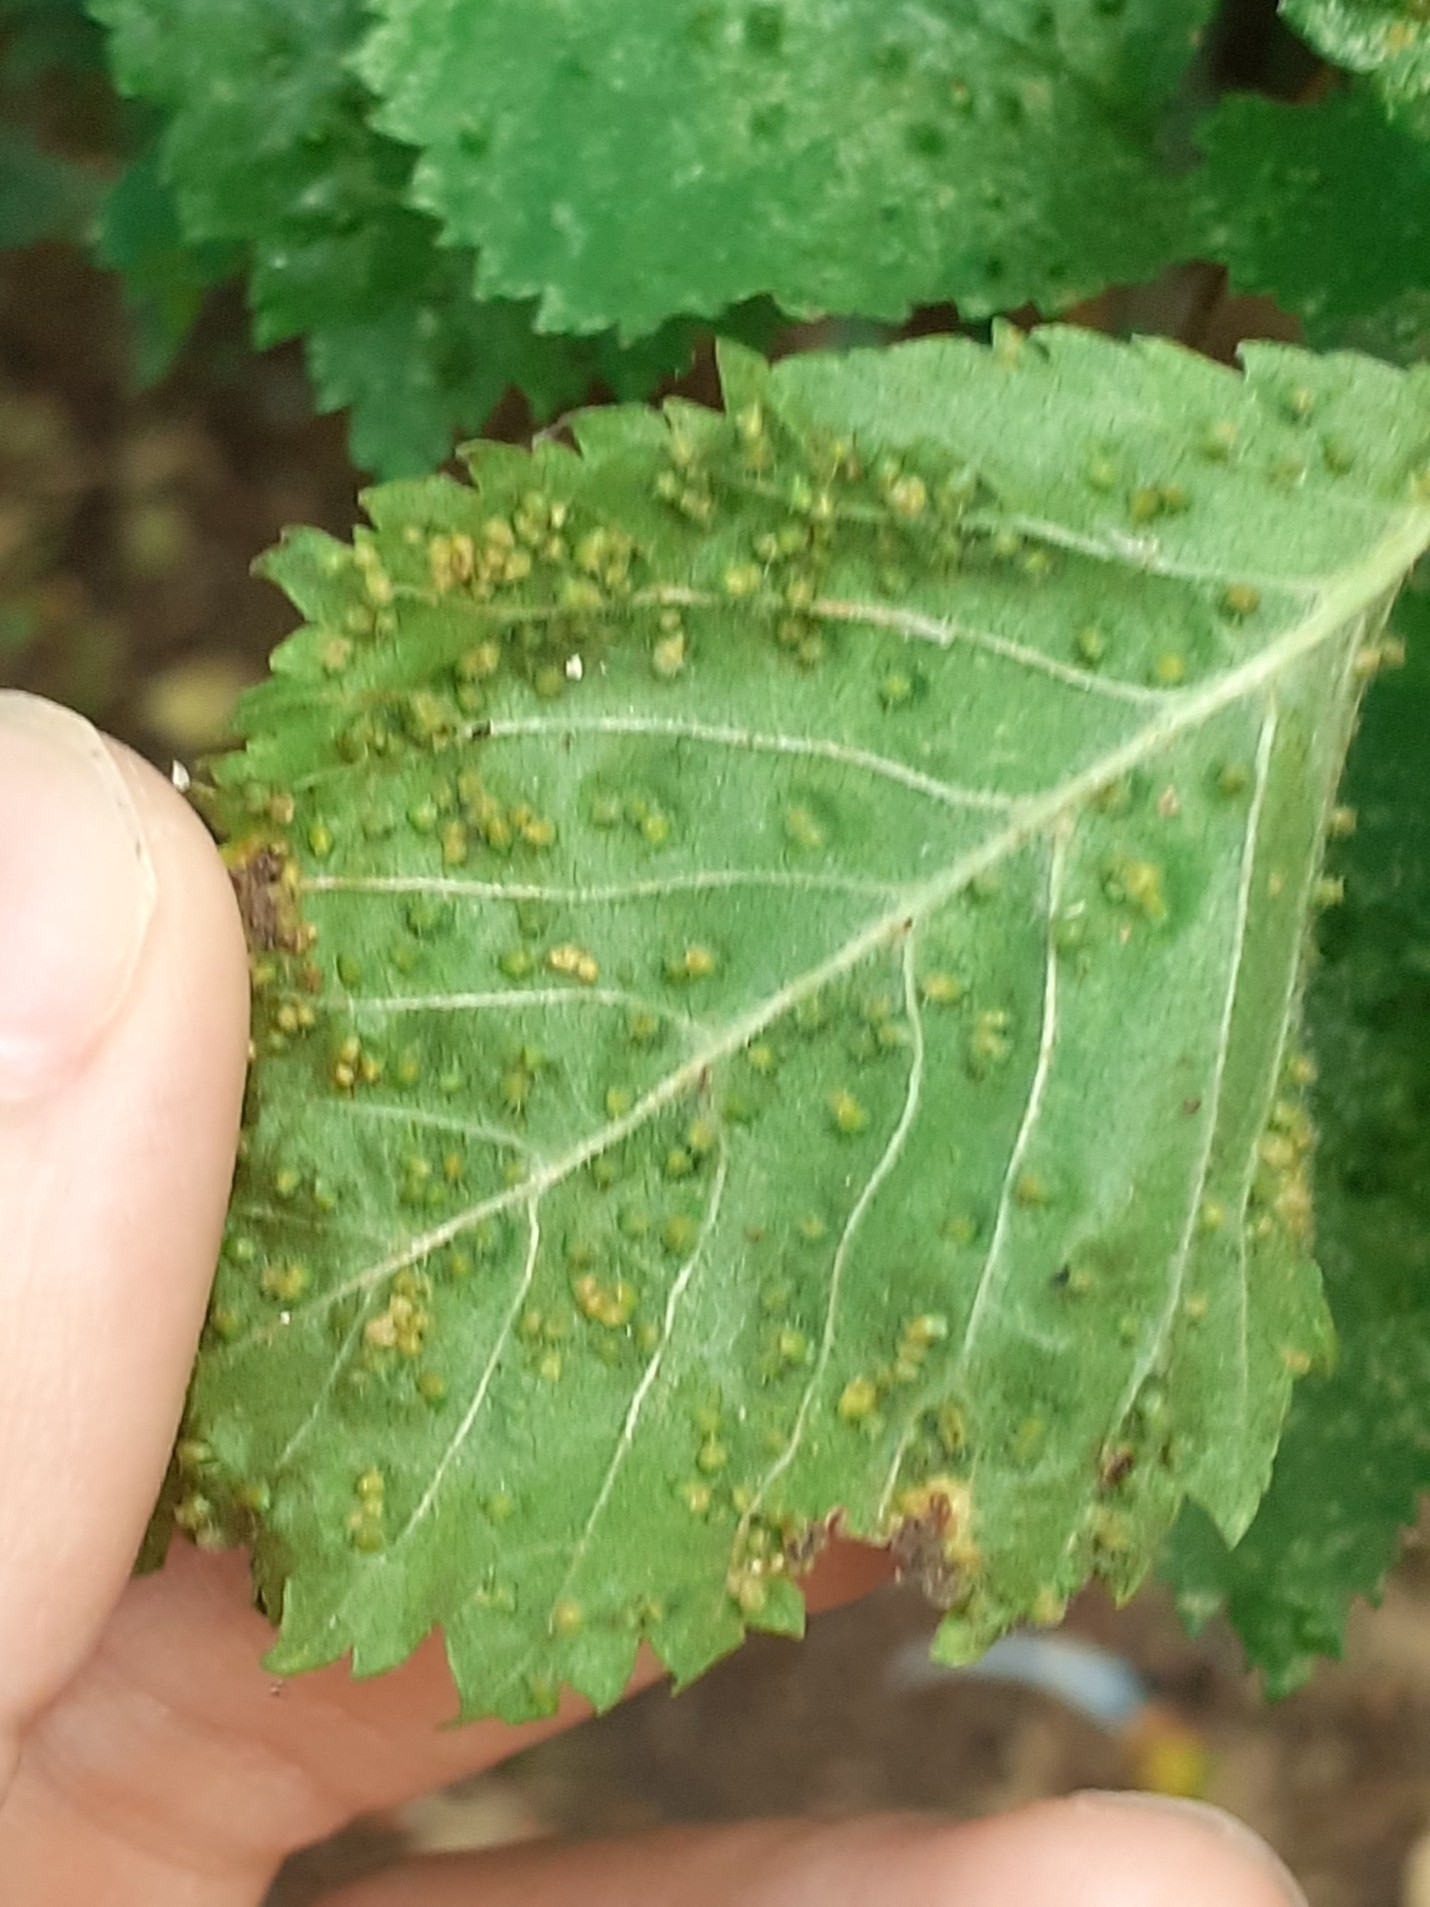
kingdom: Animalia
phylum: Arthropoda
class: Arachnida
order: Trombidiformes
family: Eriophyidae
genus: Aceria
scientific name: Aceria brevipunctata
